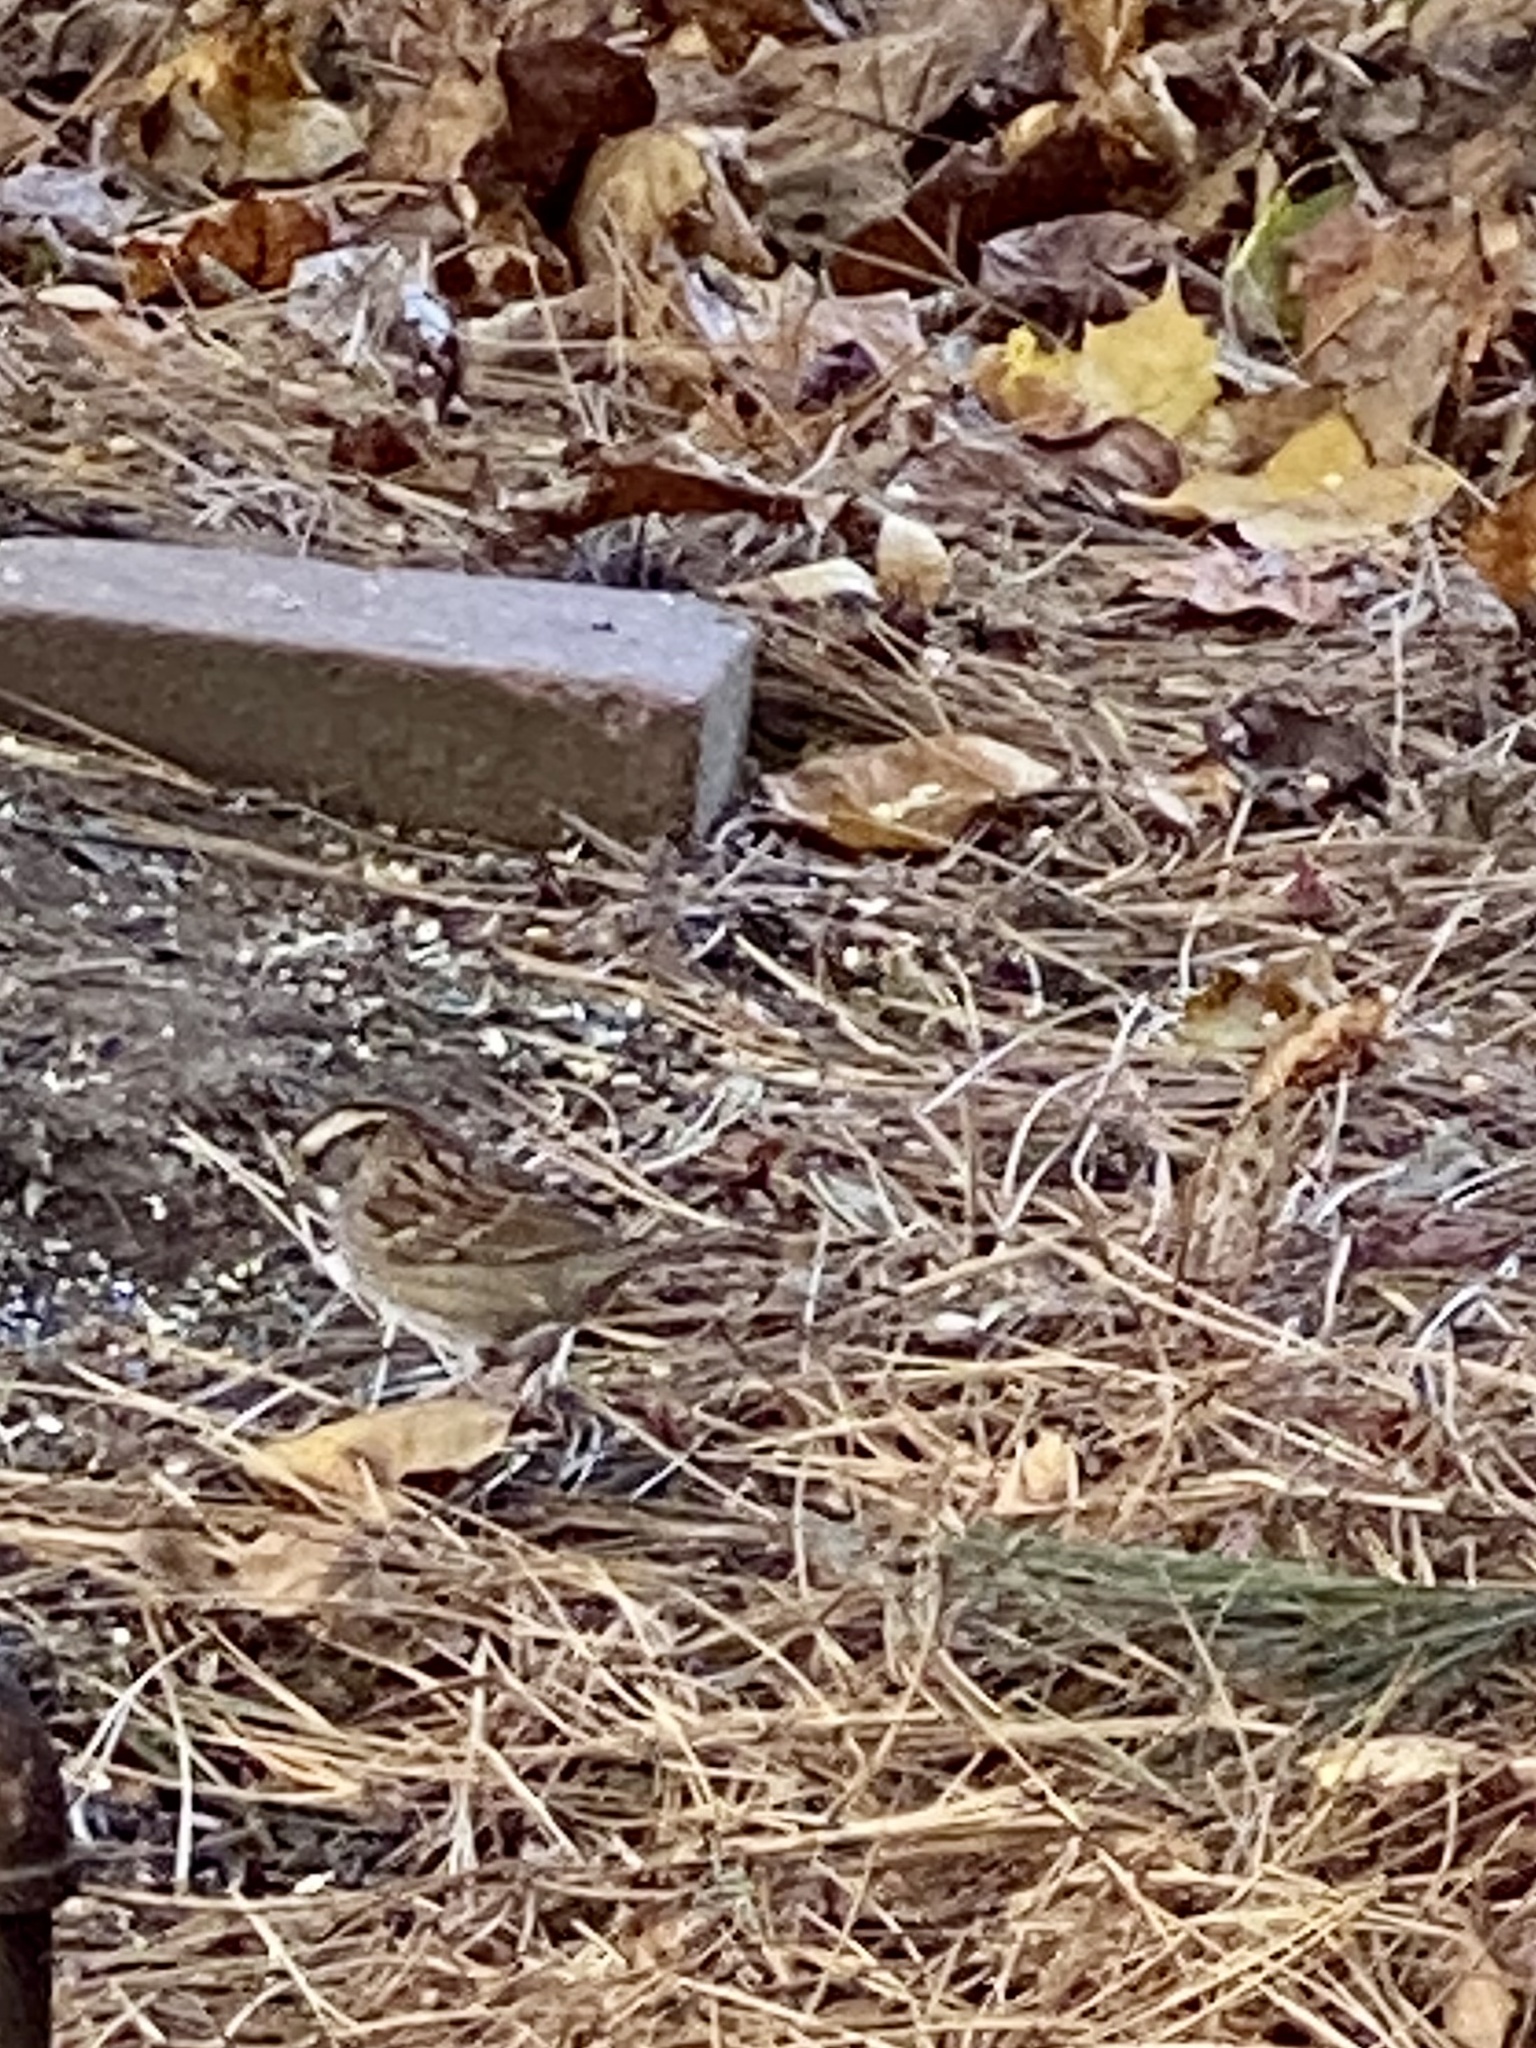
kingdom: Animalia
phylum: Chordata
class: Aves
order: Passeriformes
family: Passerellidae
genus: Zonotrichia
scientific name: Zonotrichia albicollis
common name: White-throated sparrow
